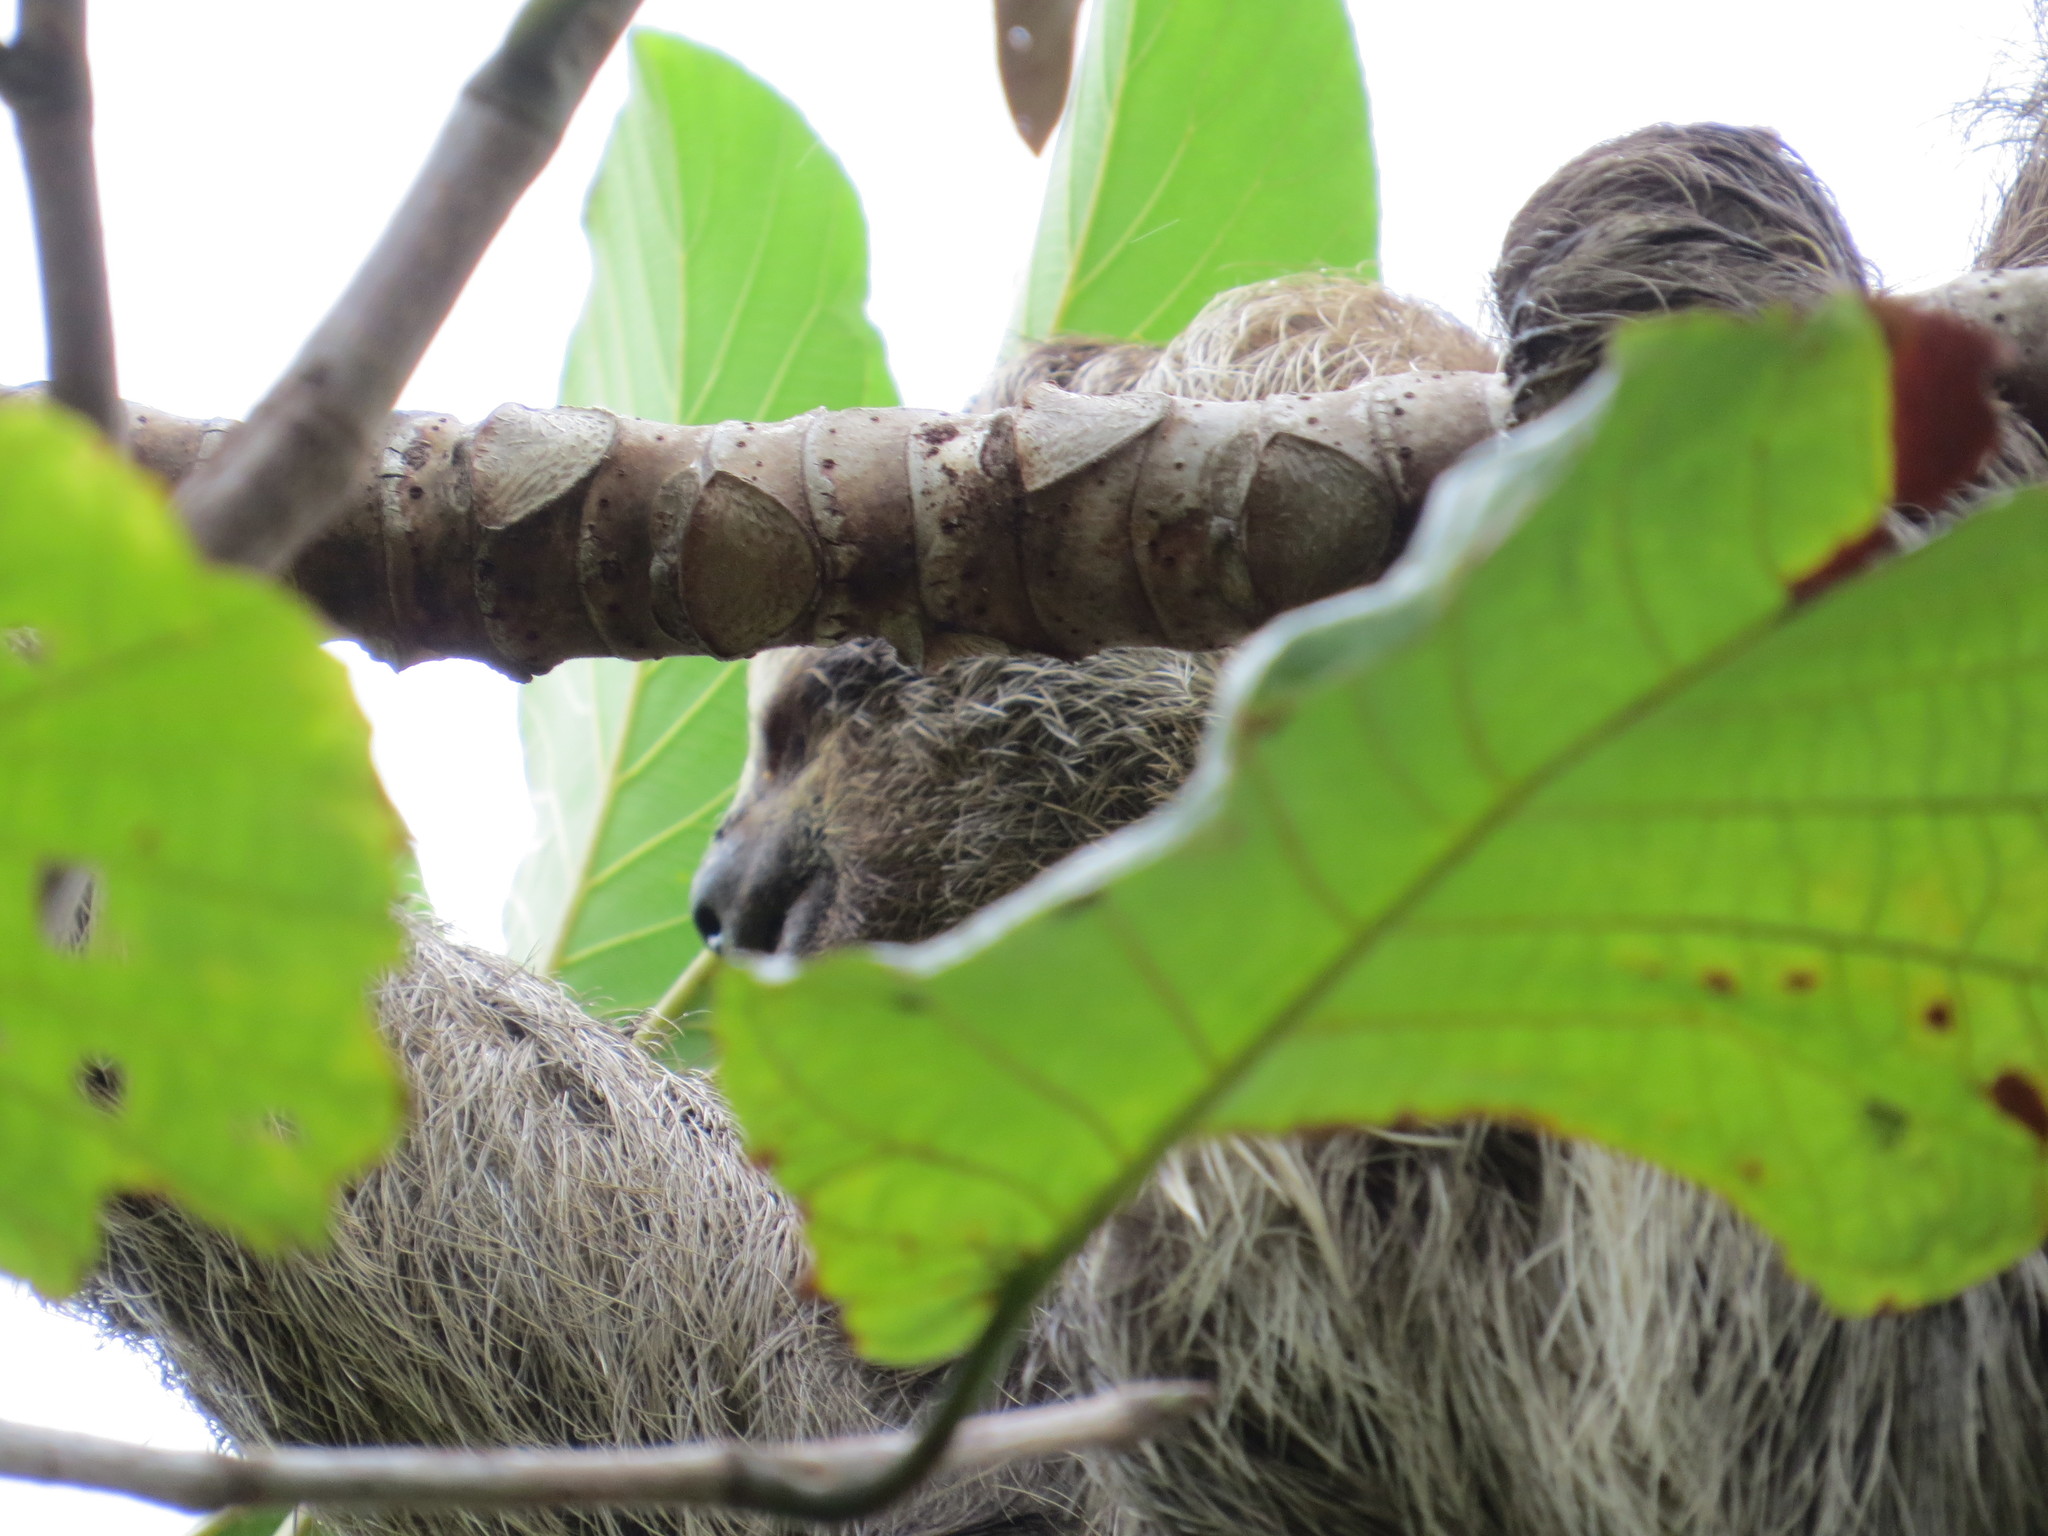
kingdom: Animalia
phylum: Chordata
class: Mammalia
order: Pilosa
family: Bradypodidae
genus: Bradypus
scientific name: Bradypus variegatus
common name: Brown-throated three-toed sloth
